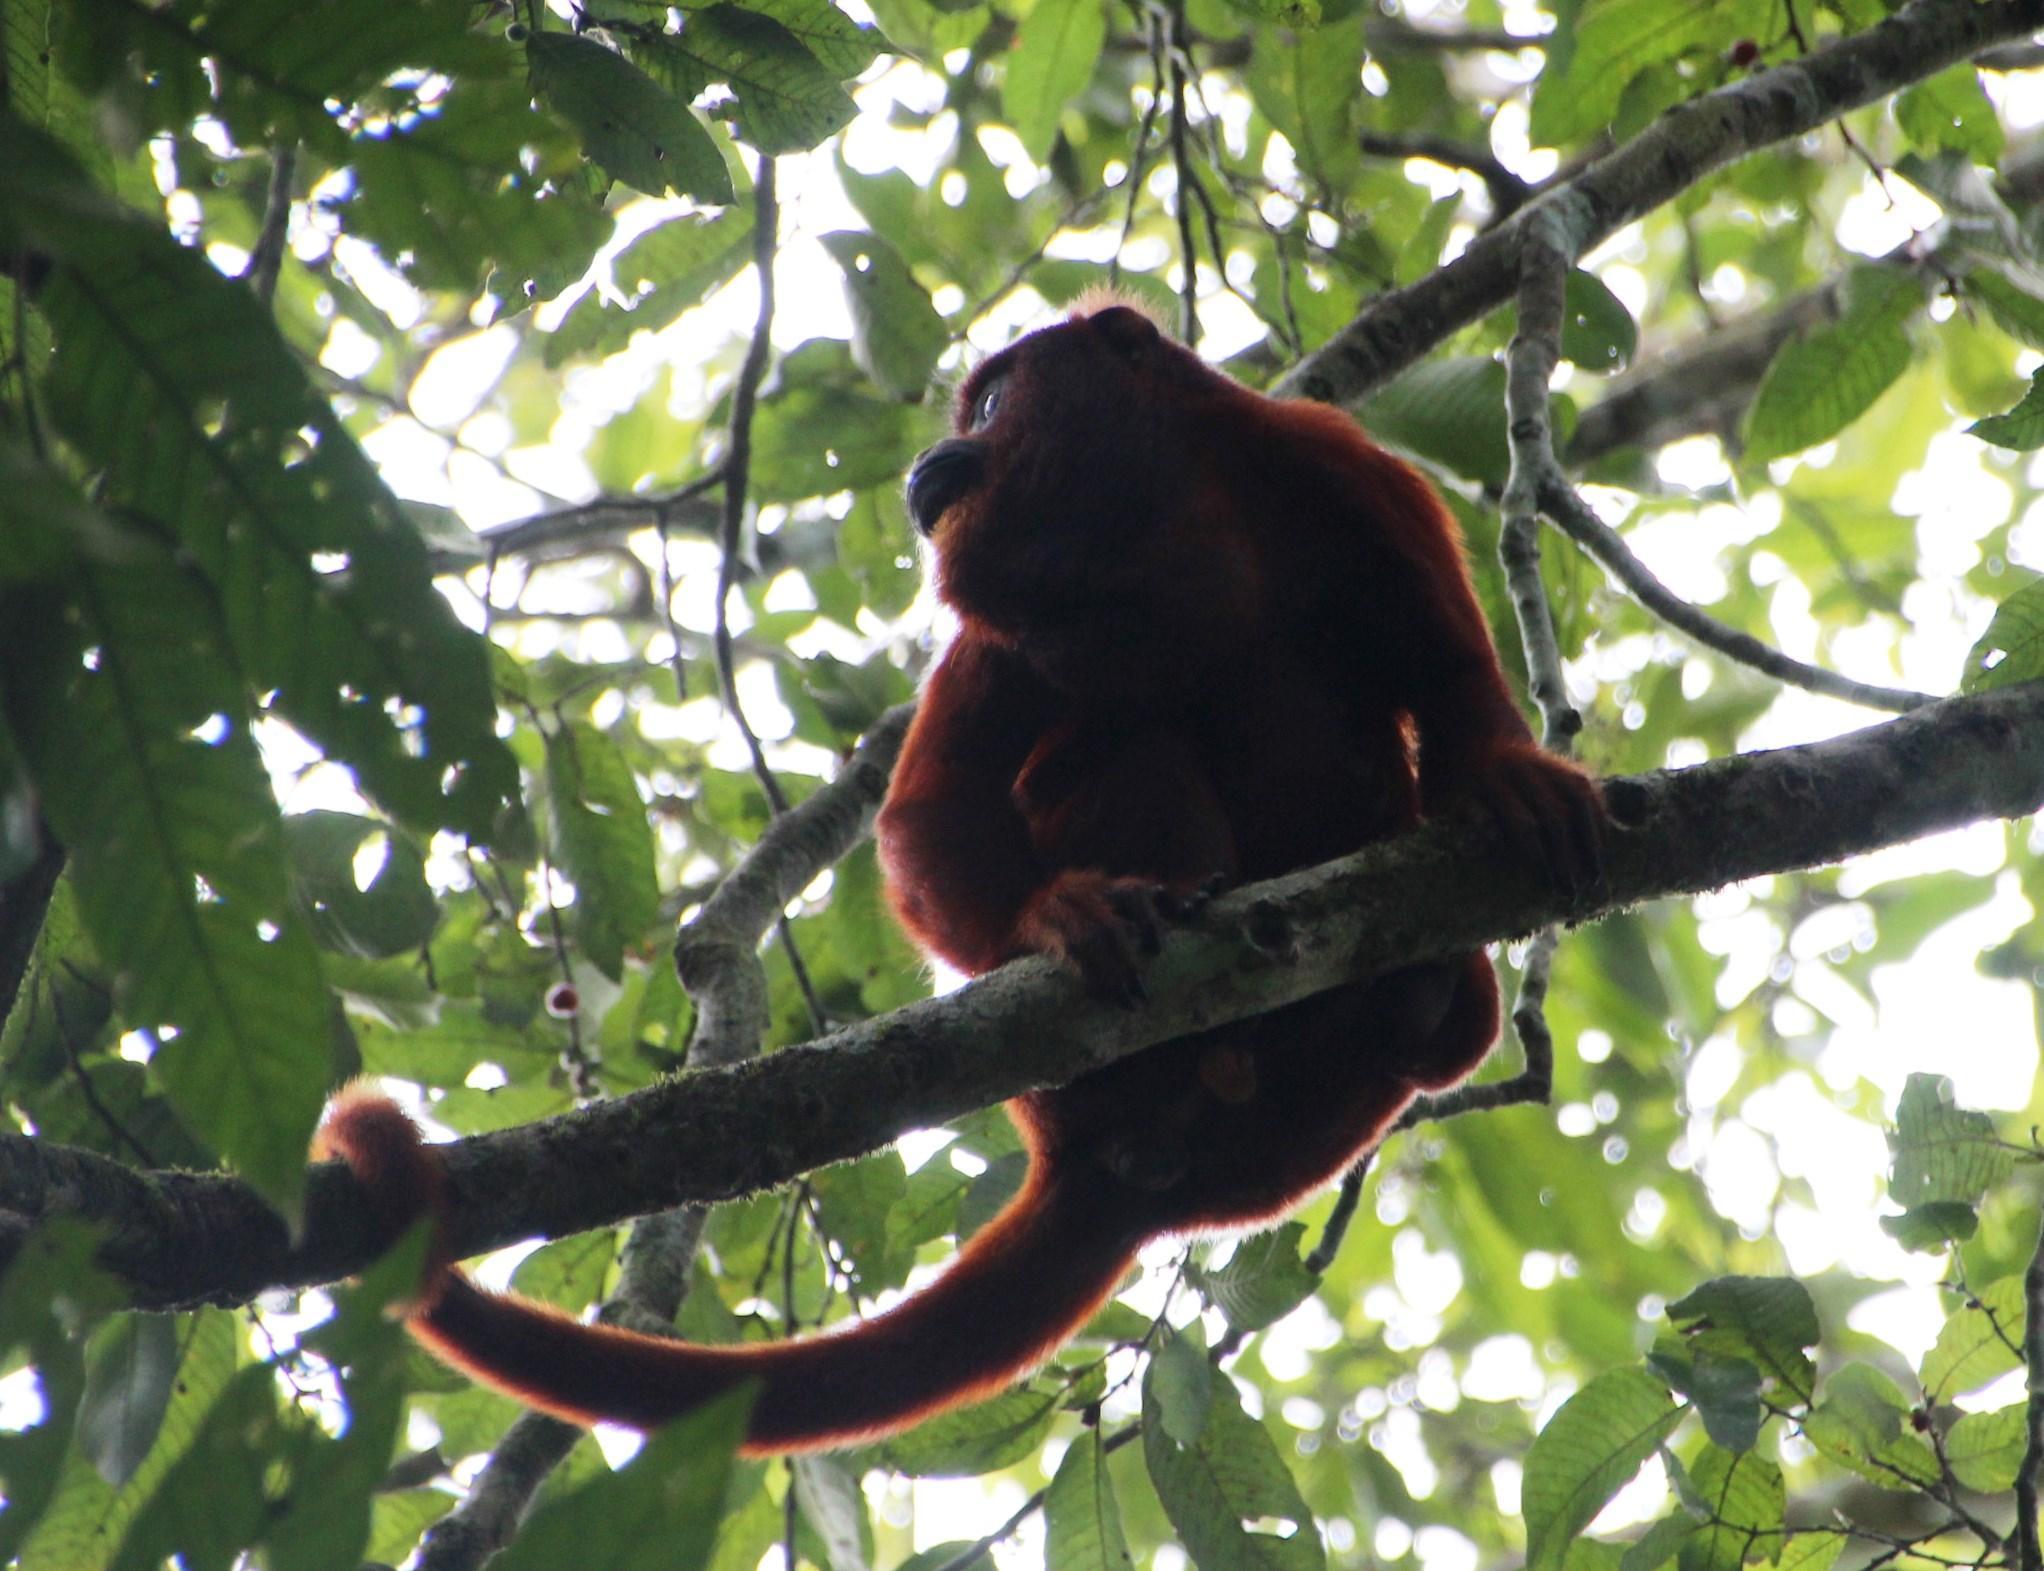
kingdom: Animalia
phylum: Chordata
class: Mammalia
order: Primates
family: Atelidae
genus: Alouatta
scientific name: Alouatta sara
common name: Bolivian red howler
